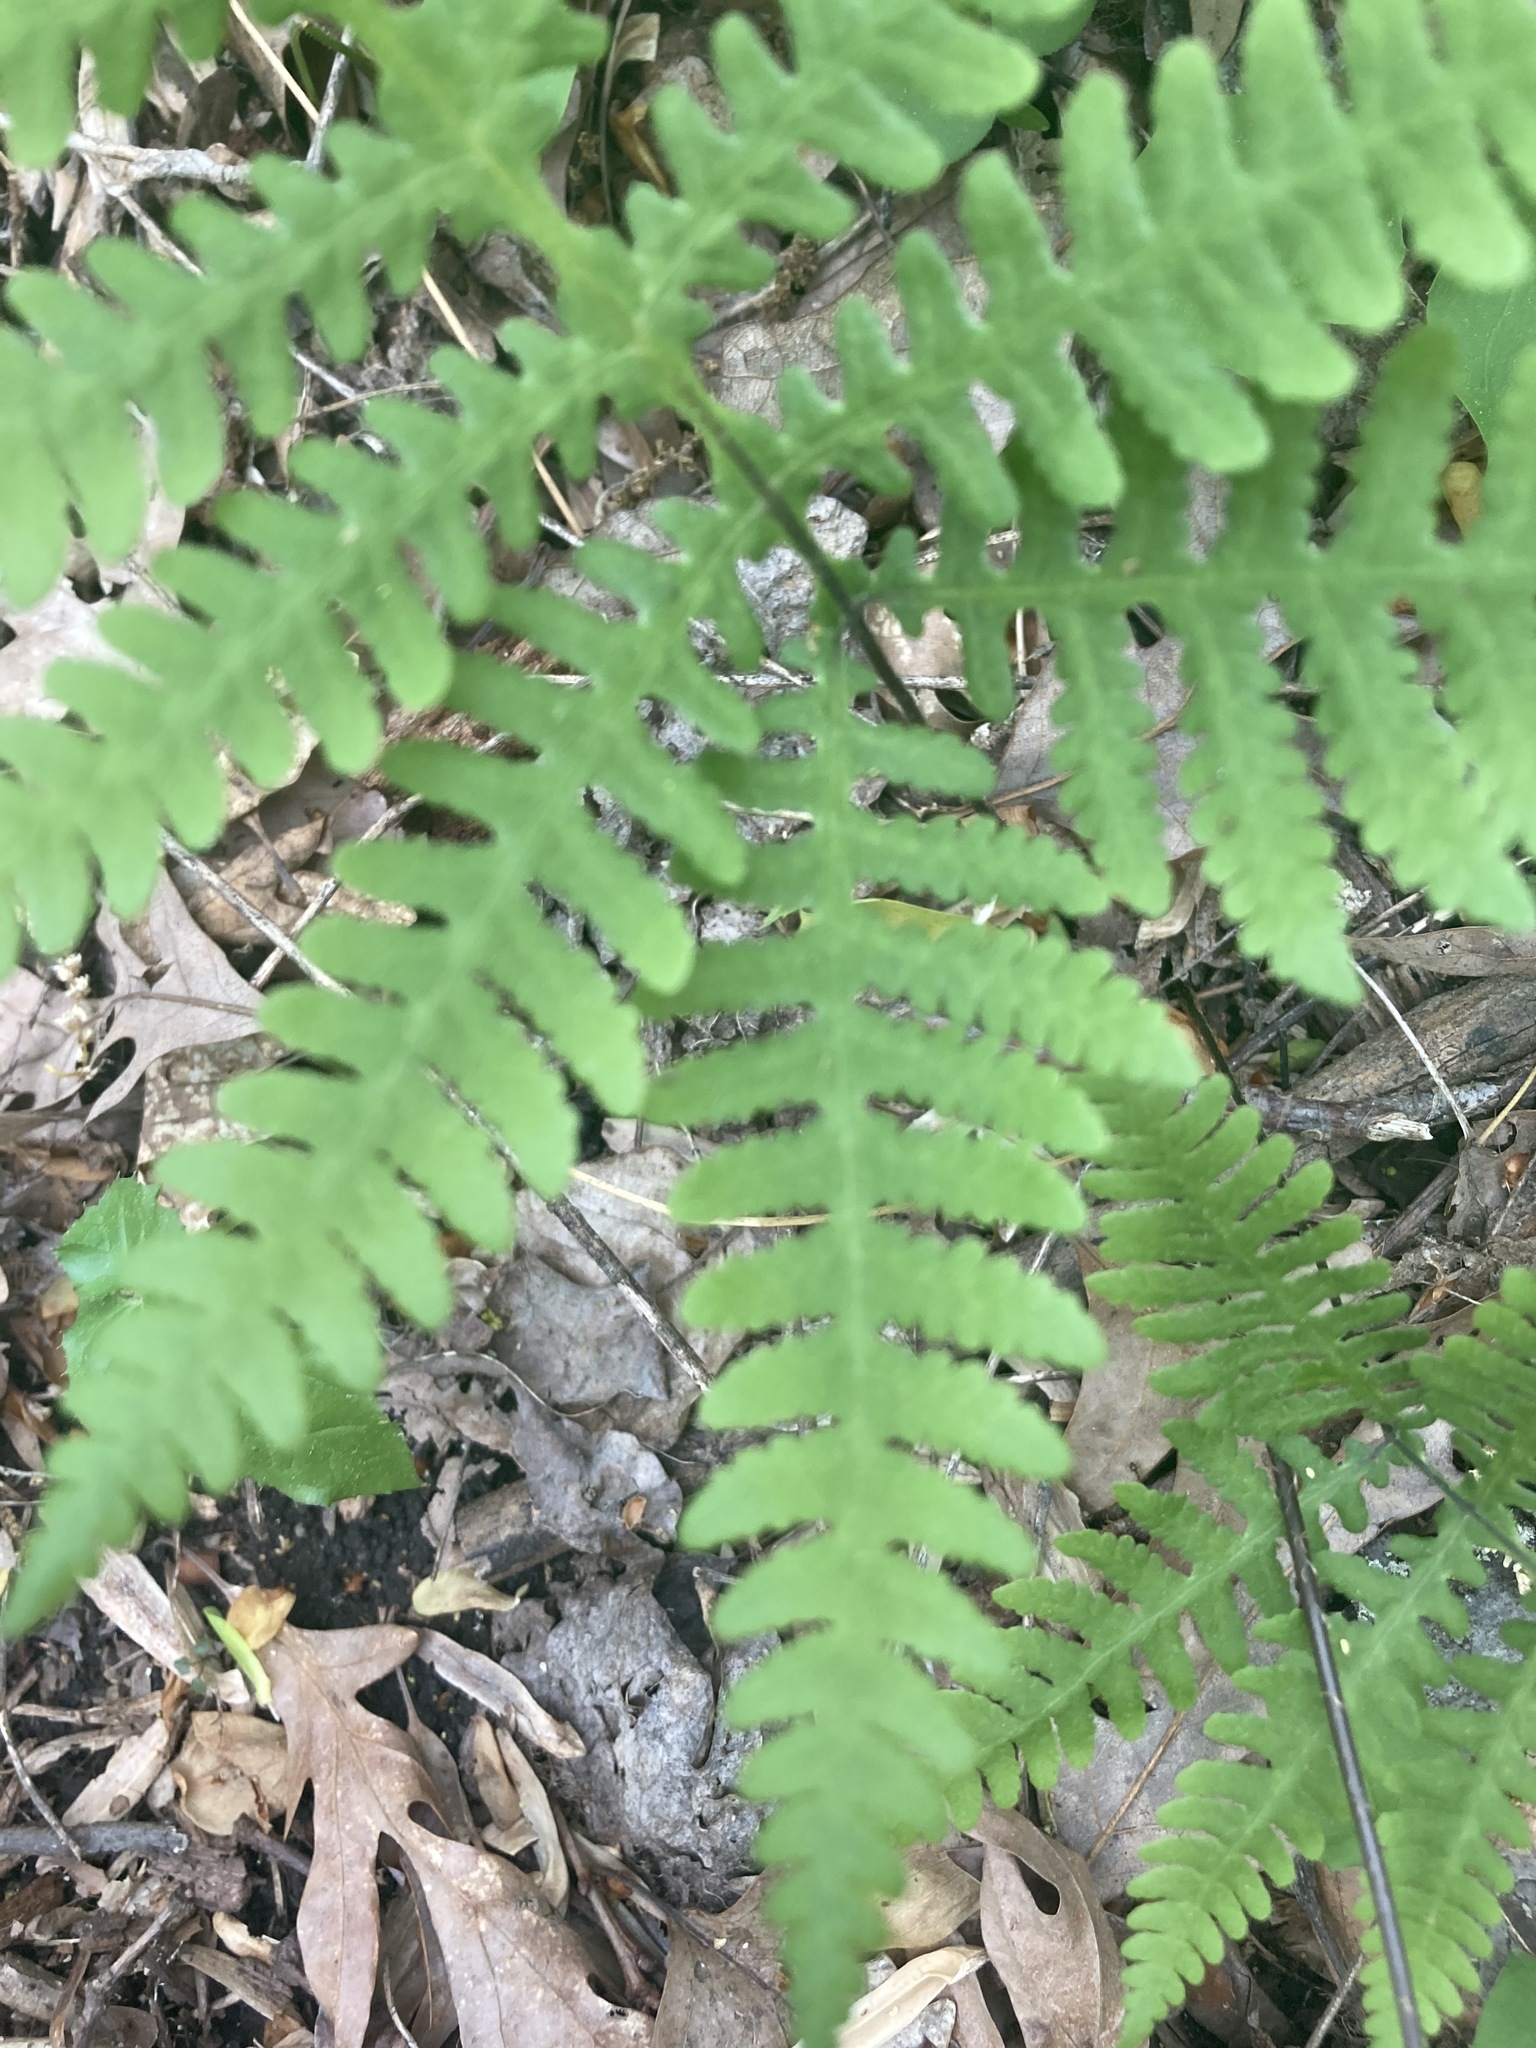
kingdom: Plantae
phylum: Tracheophyta
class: Polypodiopsida
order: Polypodiales
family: Thelypteridaceae
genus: Phegopteris
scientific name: Phegopteris hexagonoptera
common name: Broad beech fern
